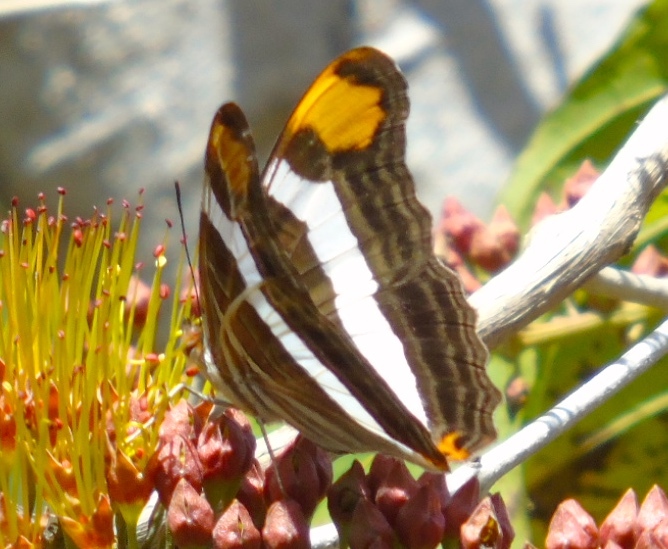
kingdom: Animalia
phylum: Arthropoda
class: Insecta
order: Lepidoptera
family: Nymphalidae
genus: Limenitis
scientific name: Limenitis fessonia
